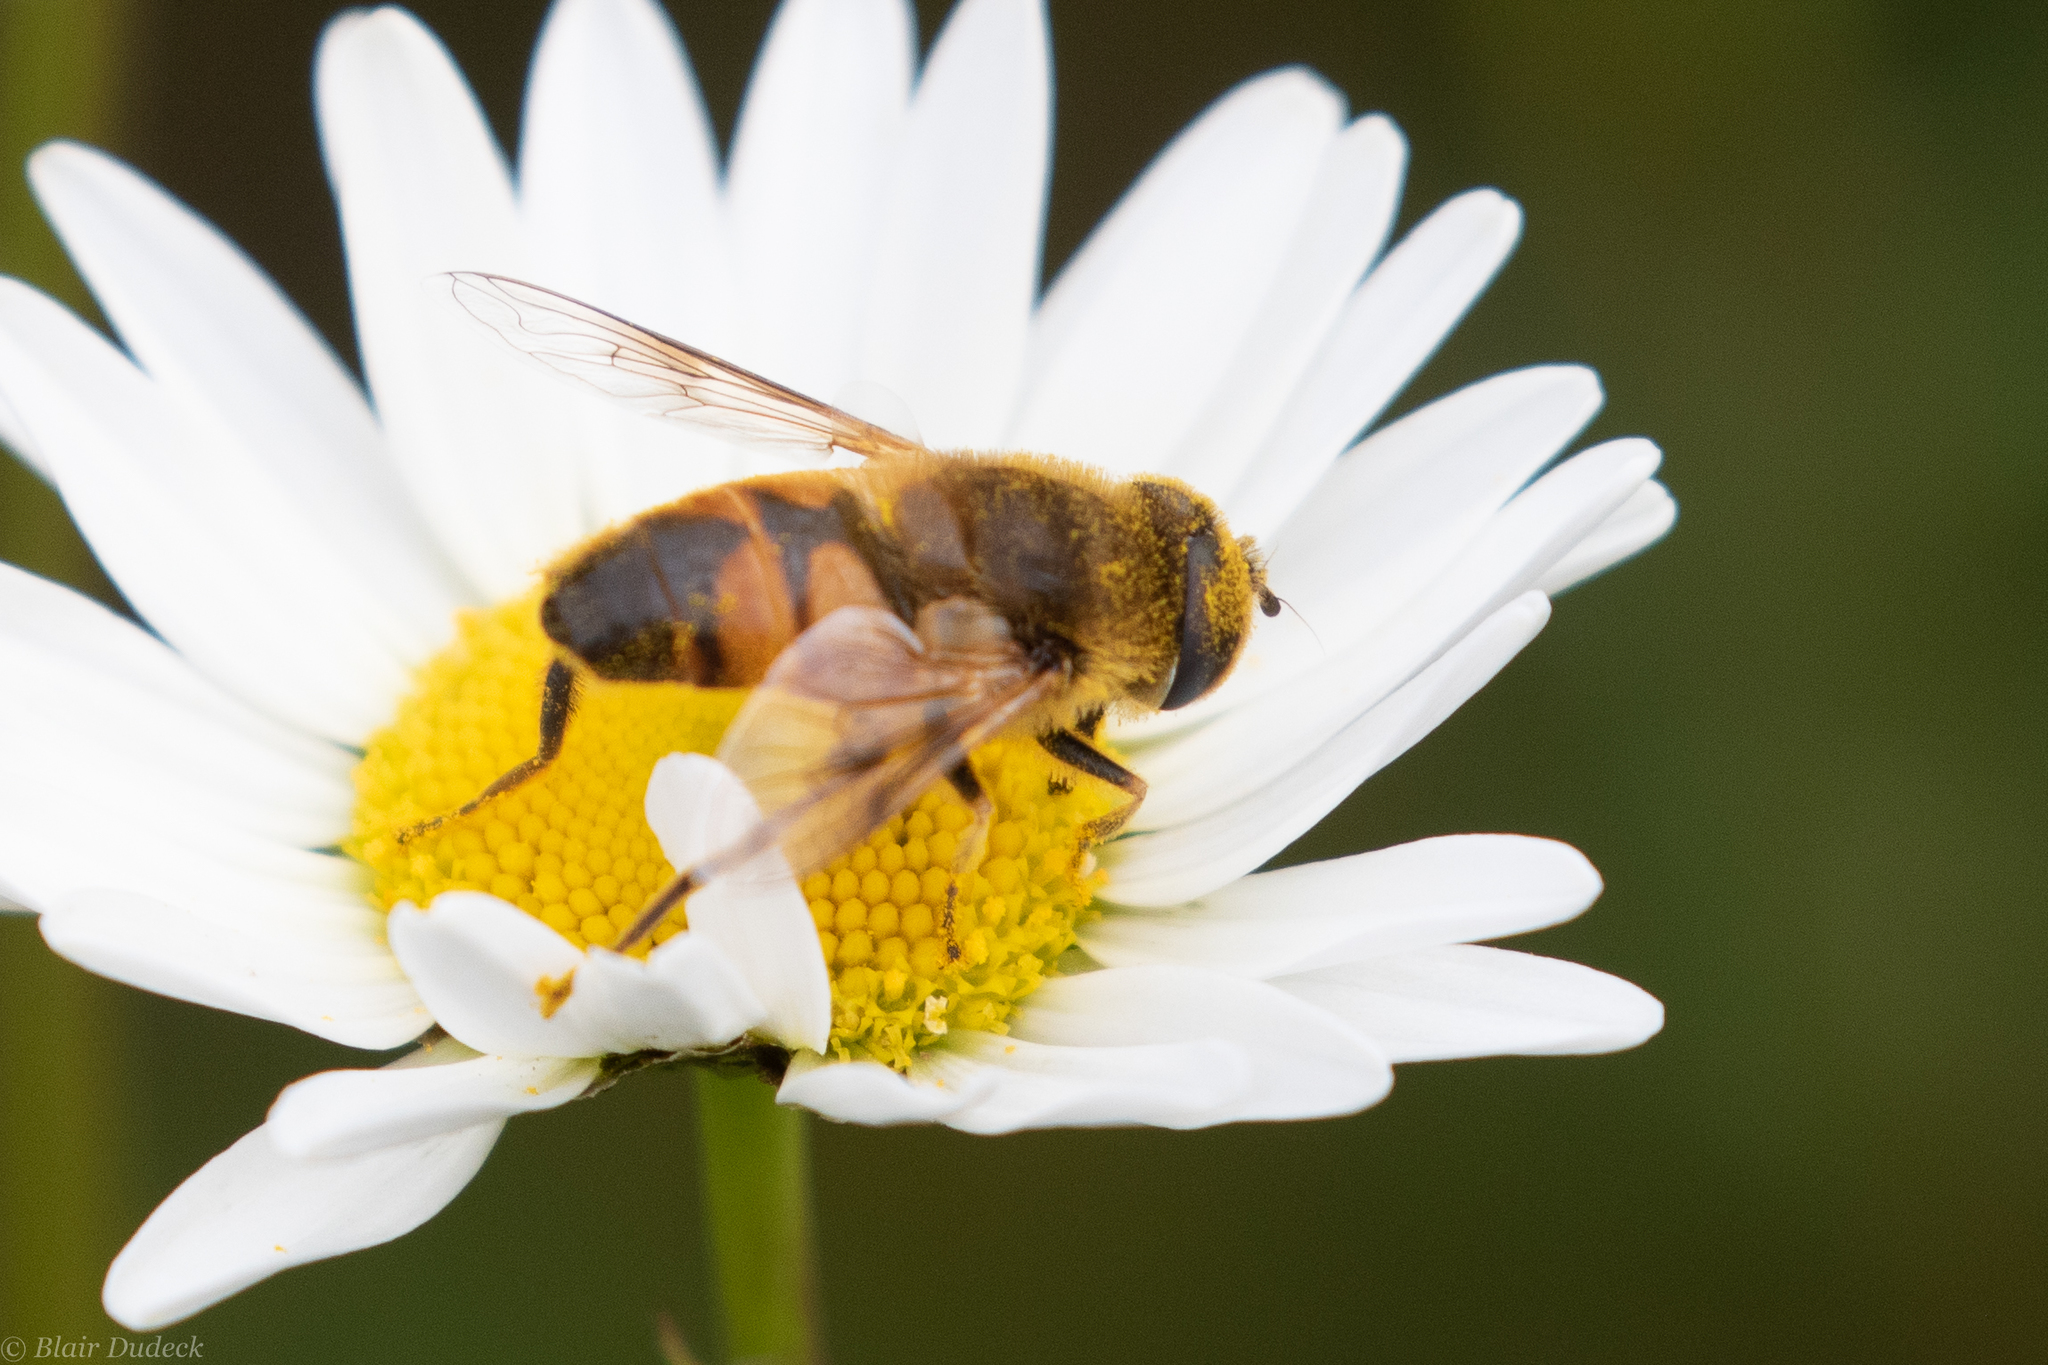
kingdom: Animalia
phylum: Arthropoda
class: Insecta
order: Diptera
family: Syrphidae
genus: Eristalis
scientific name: Eristalis tenax
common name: Drone fly
